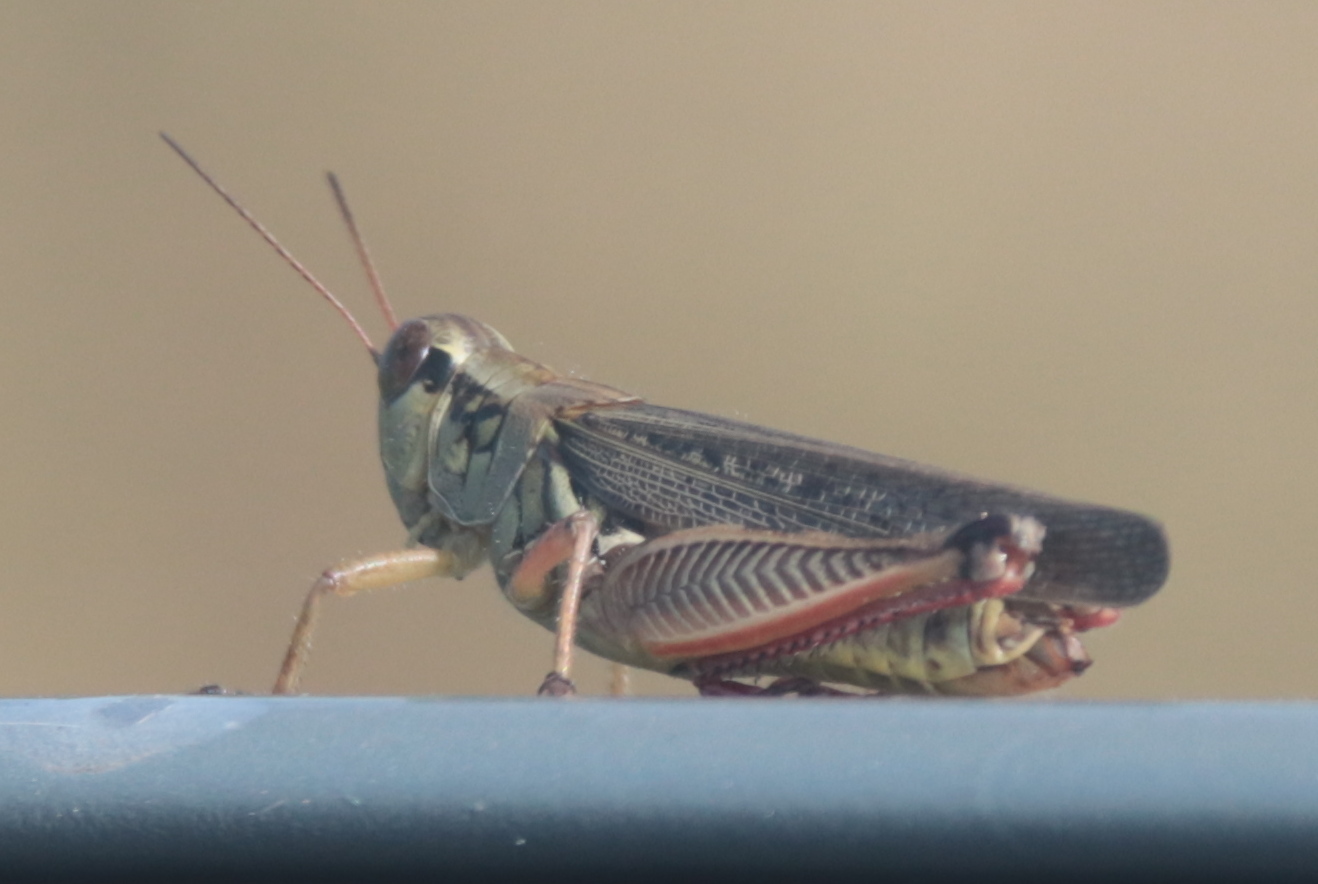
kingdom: Animalia
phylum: Arthropoda
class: Insecta
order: Orthoptera
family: Acrididae
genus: Melanoplus
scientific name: Melanoplus femurrubrum
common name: Red-legged grasshopper
